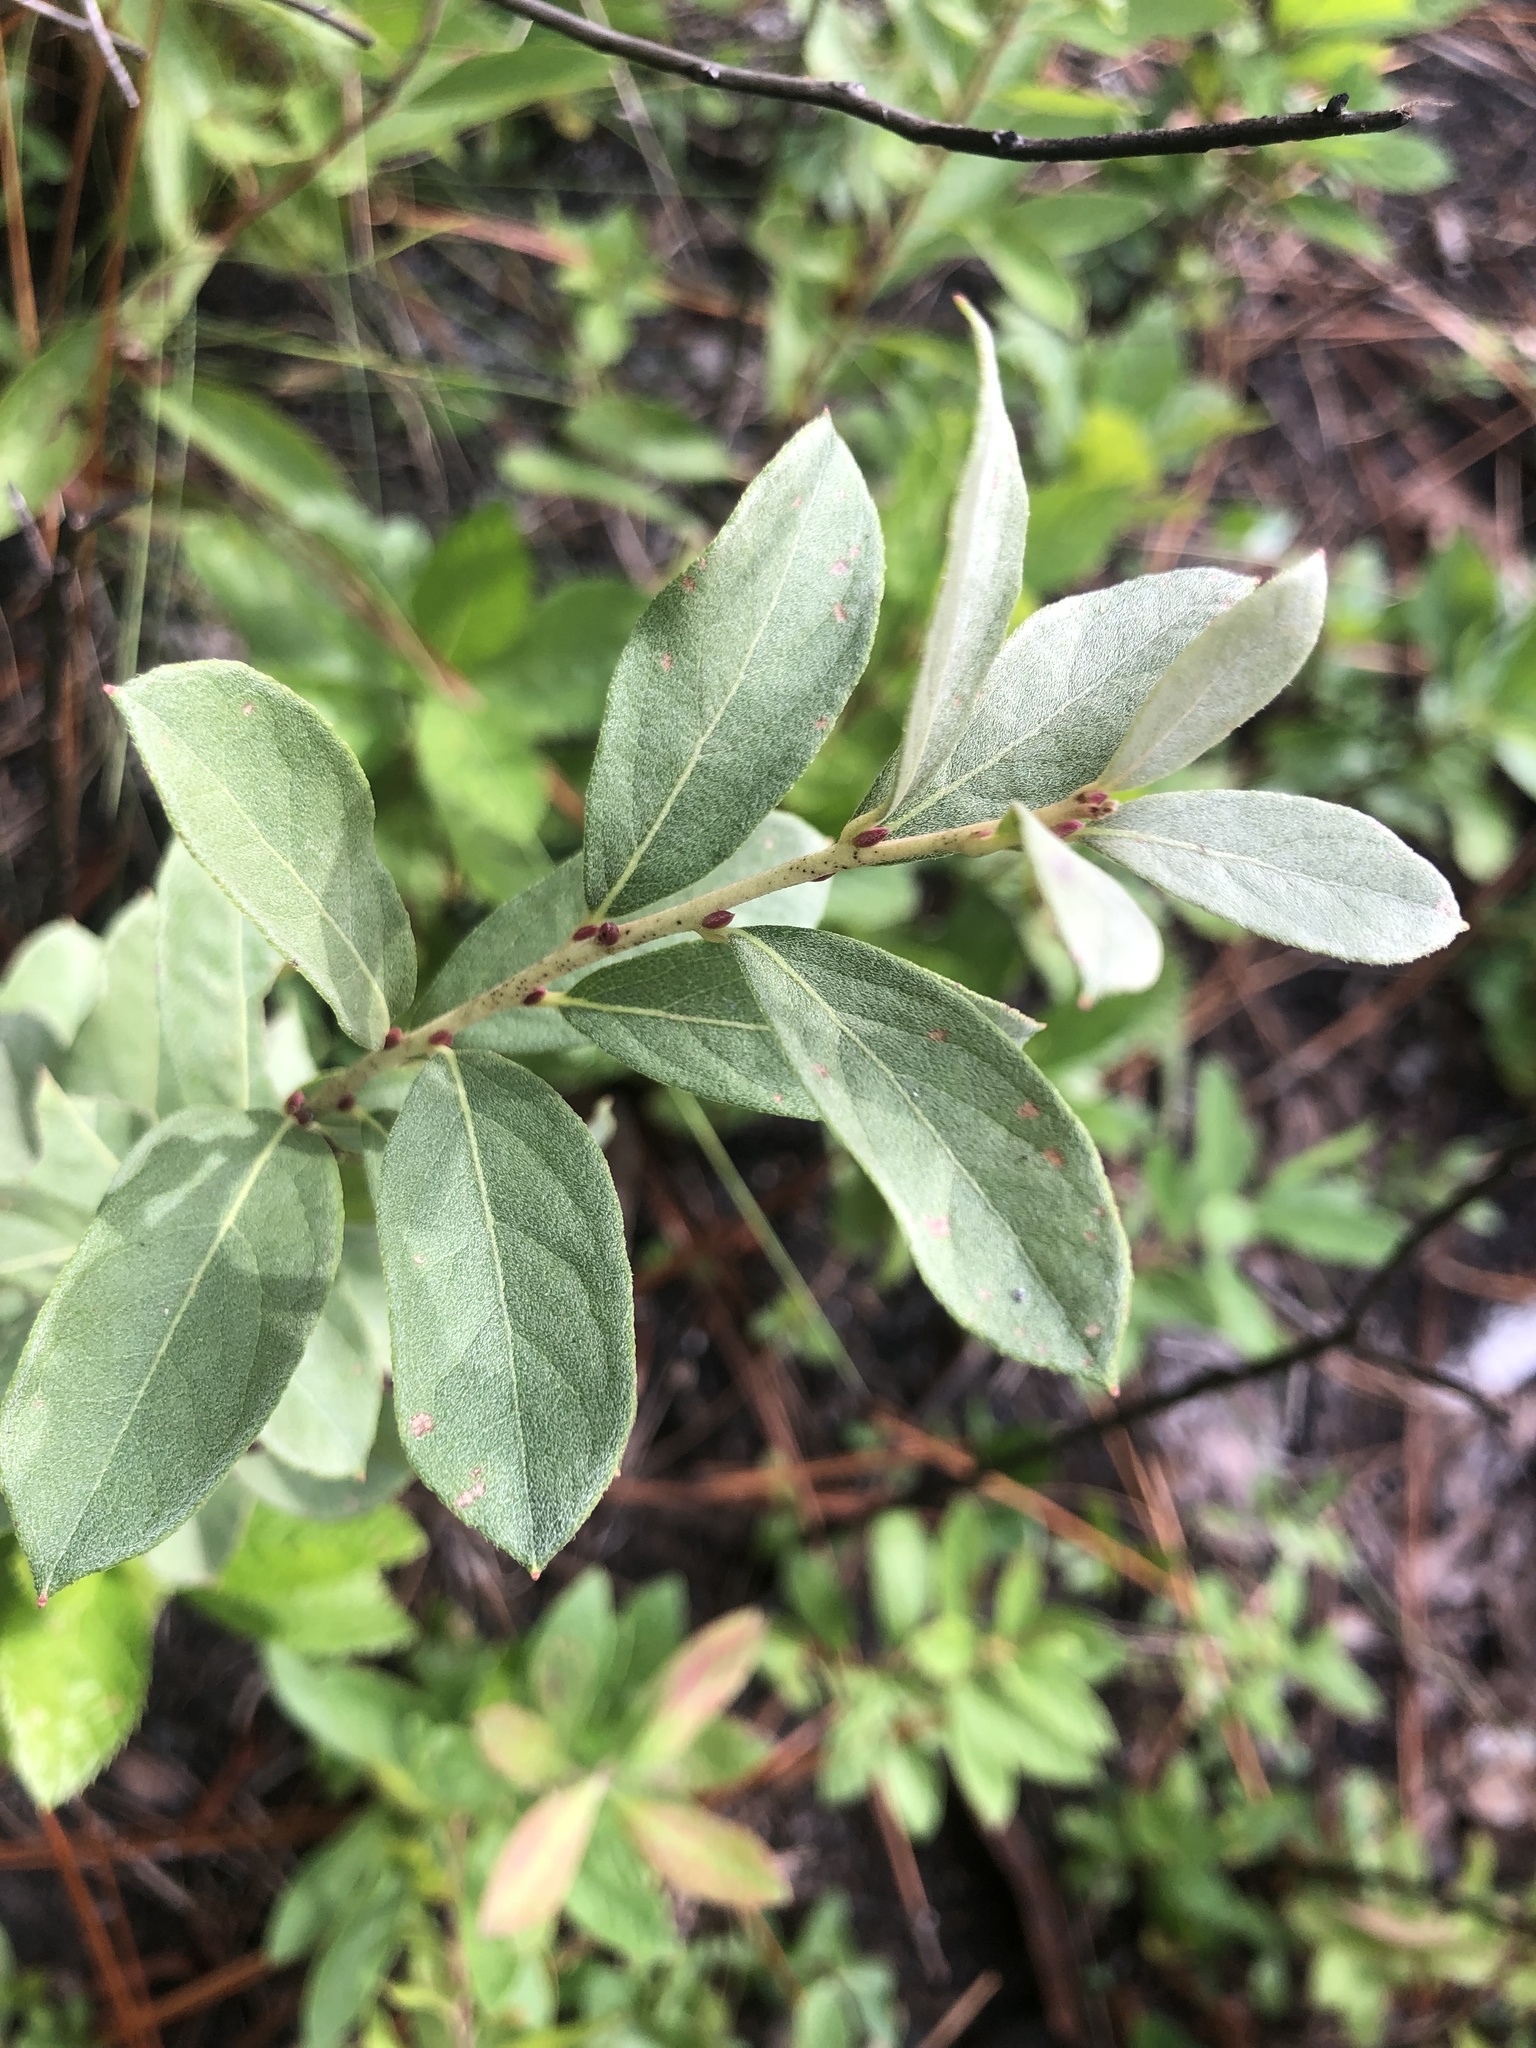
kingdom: Plantae
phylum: Tracheophyta
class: Magnoliopsida
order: Ericales
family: Ericaceae
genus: Lyonia
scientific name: Lyonia ligustrina
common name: Maleberry
